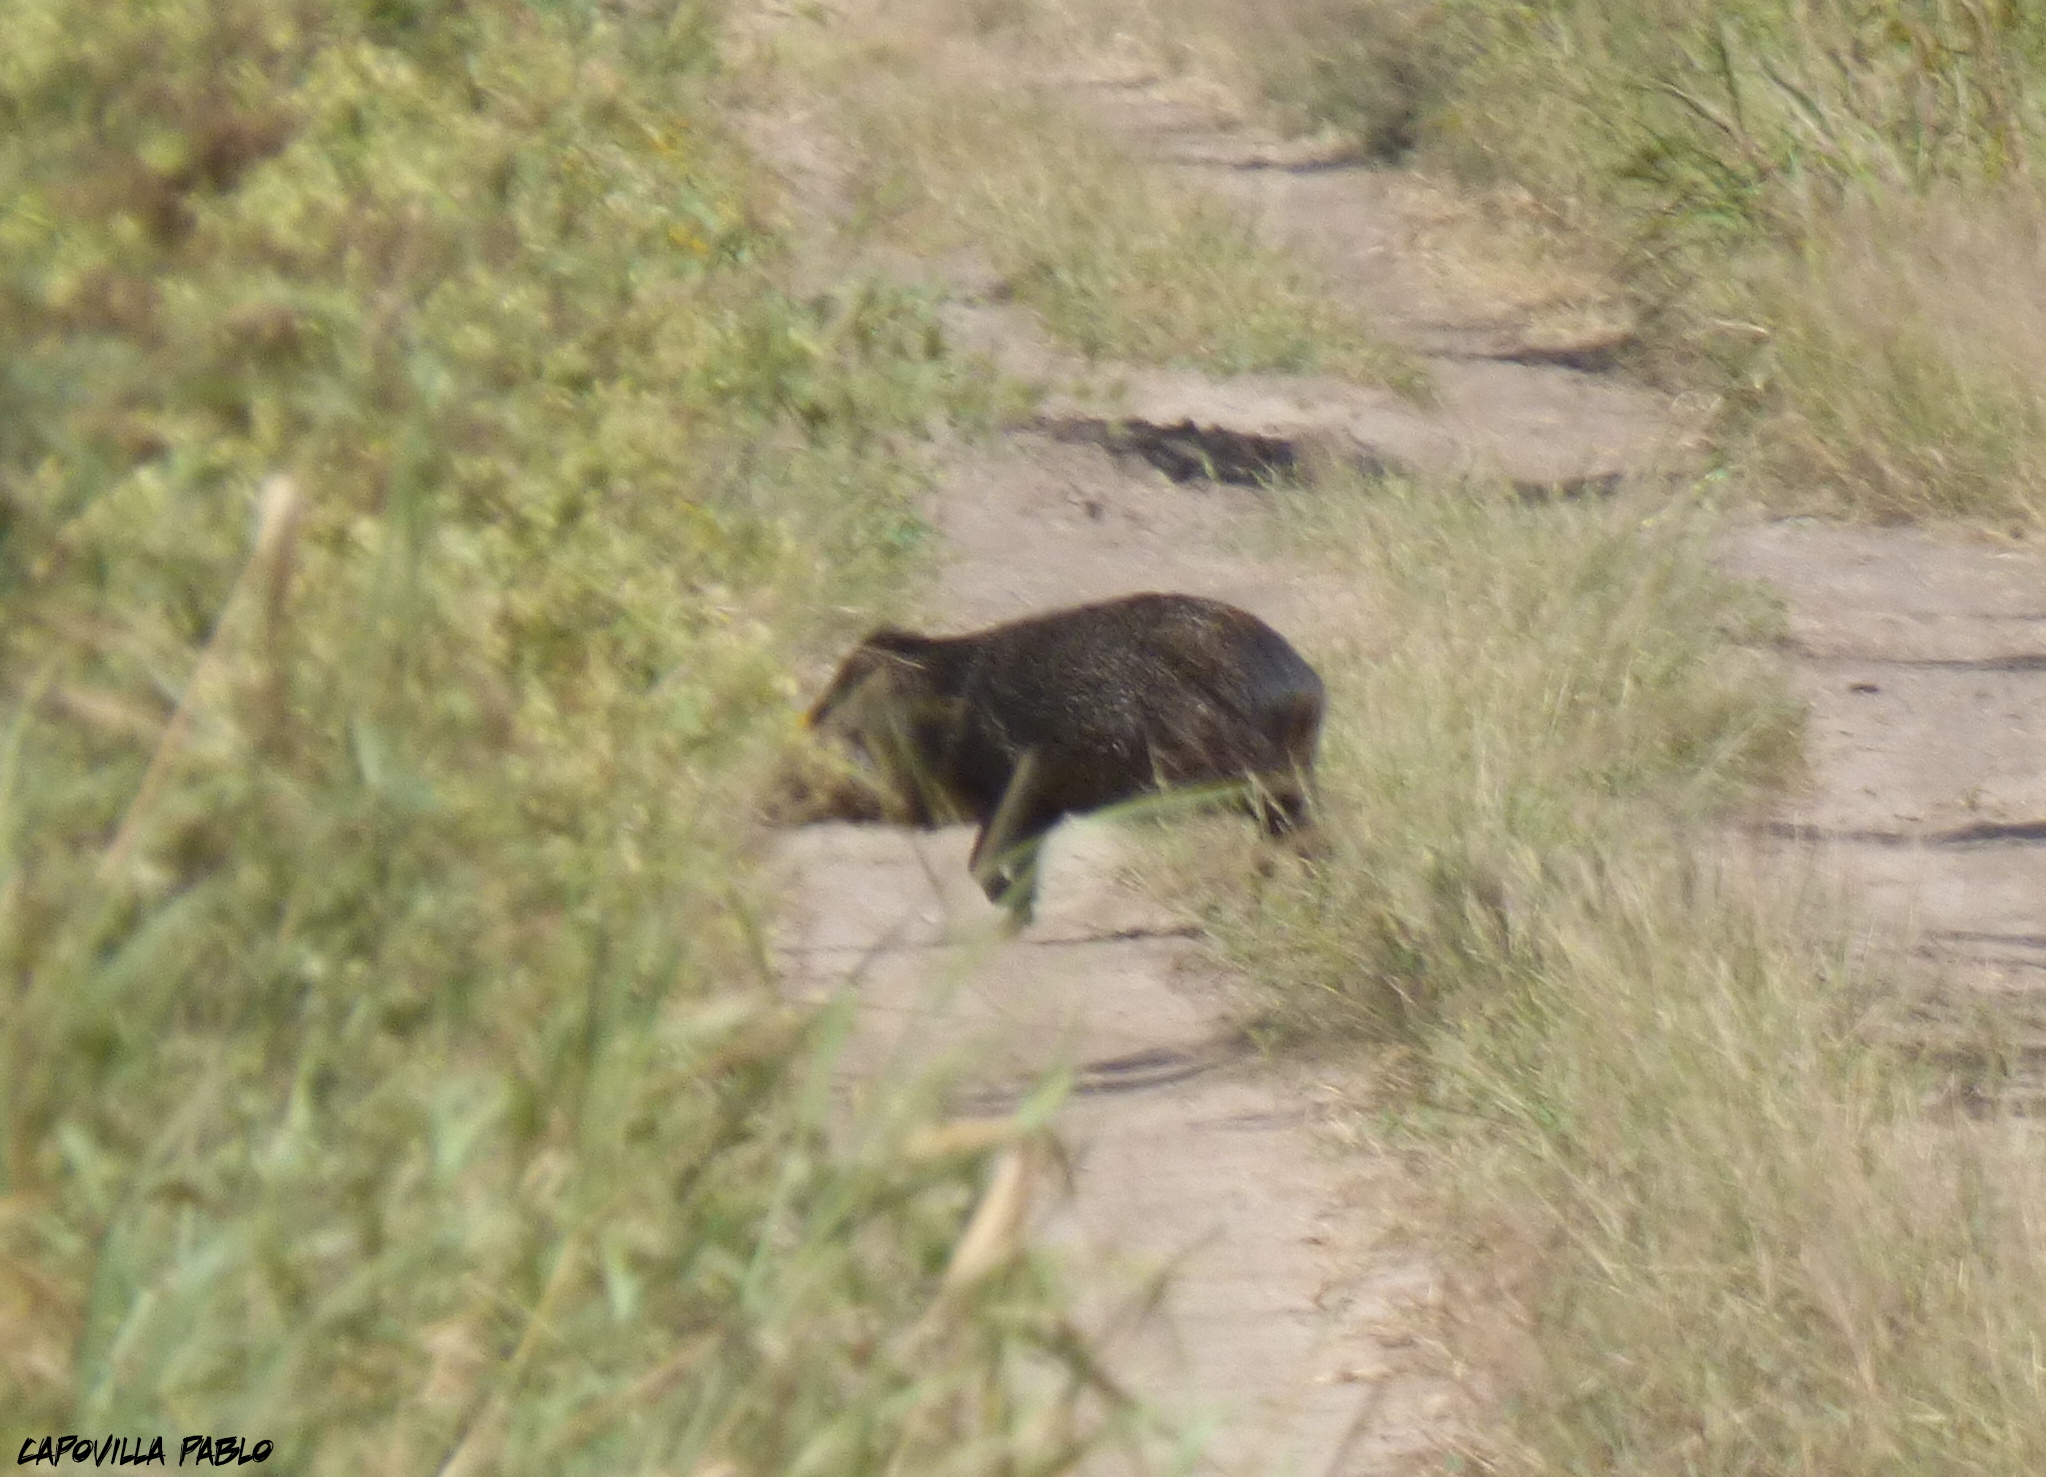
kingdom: Animalia
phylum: Chordata
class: Mammalia
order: Artiodactyla
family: Tayassuidae
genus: Pecari
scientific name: Pecari tajacu
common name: Collared peccary
